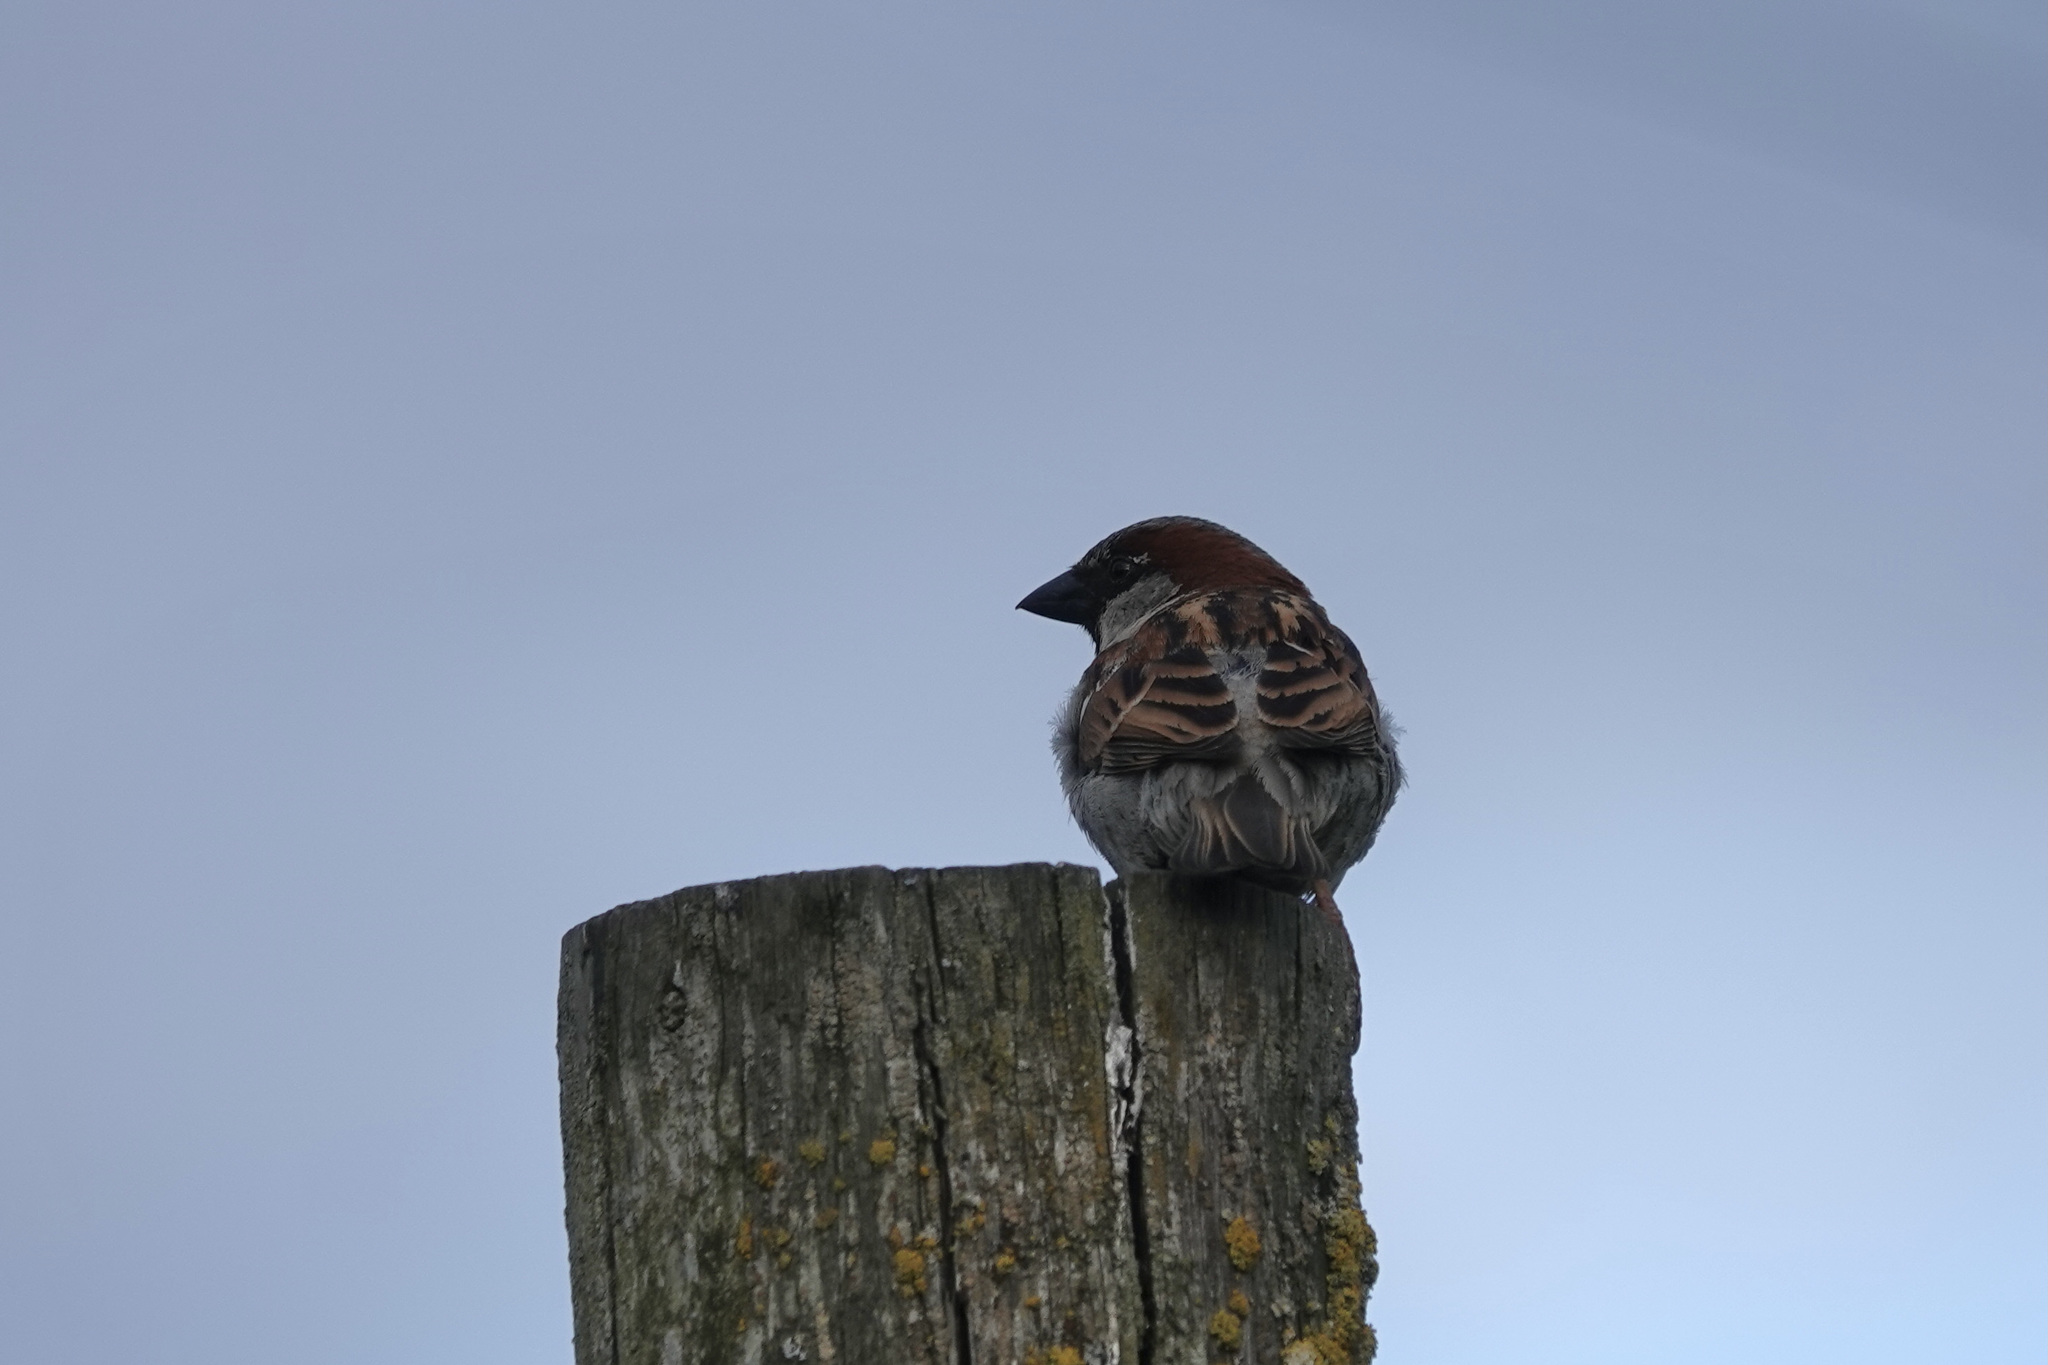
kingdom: Animalia
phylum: Chordata
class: Aves
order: Passeriformes
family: Passeridae
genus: Passer
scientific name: Passer domesticus
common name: House sparrow
